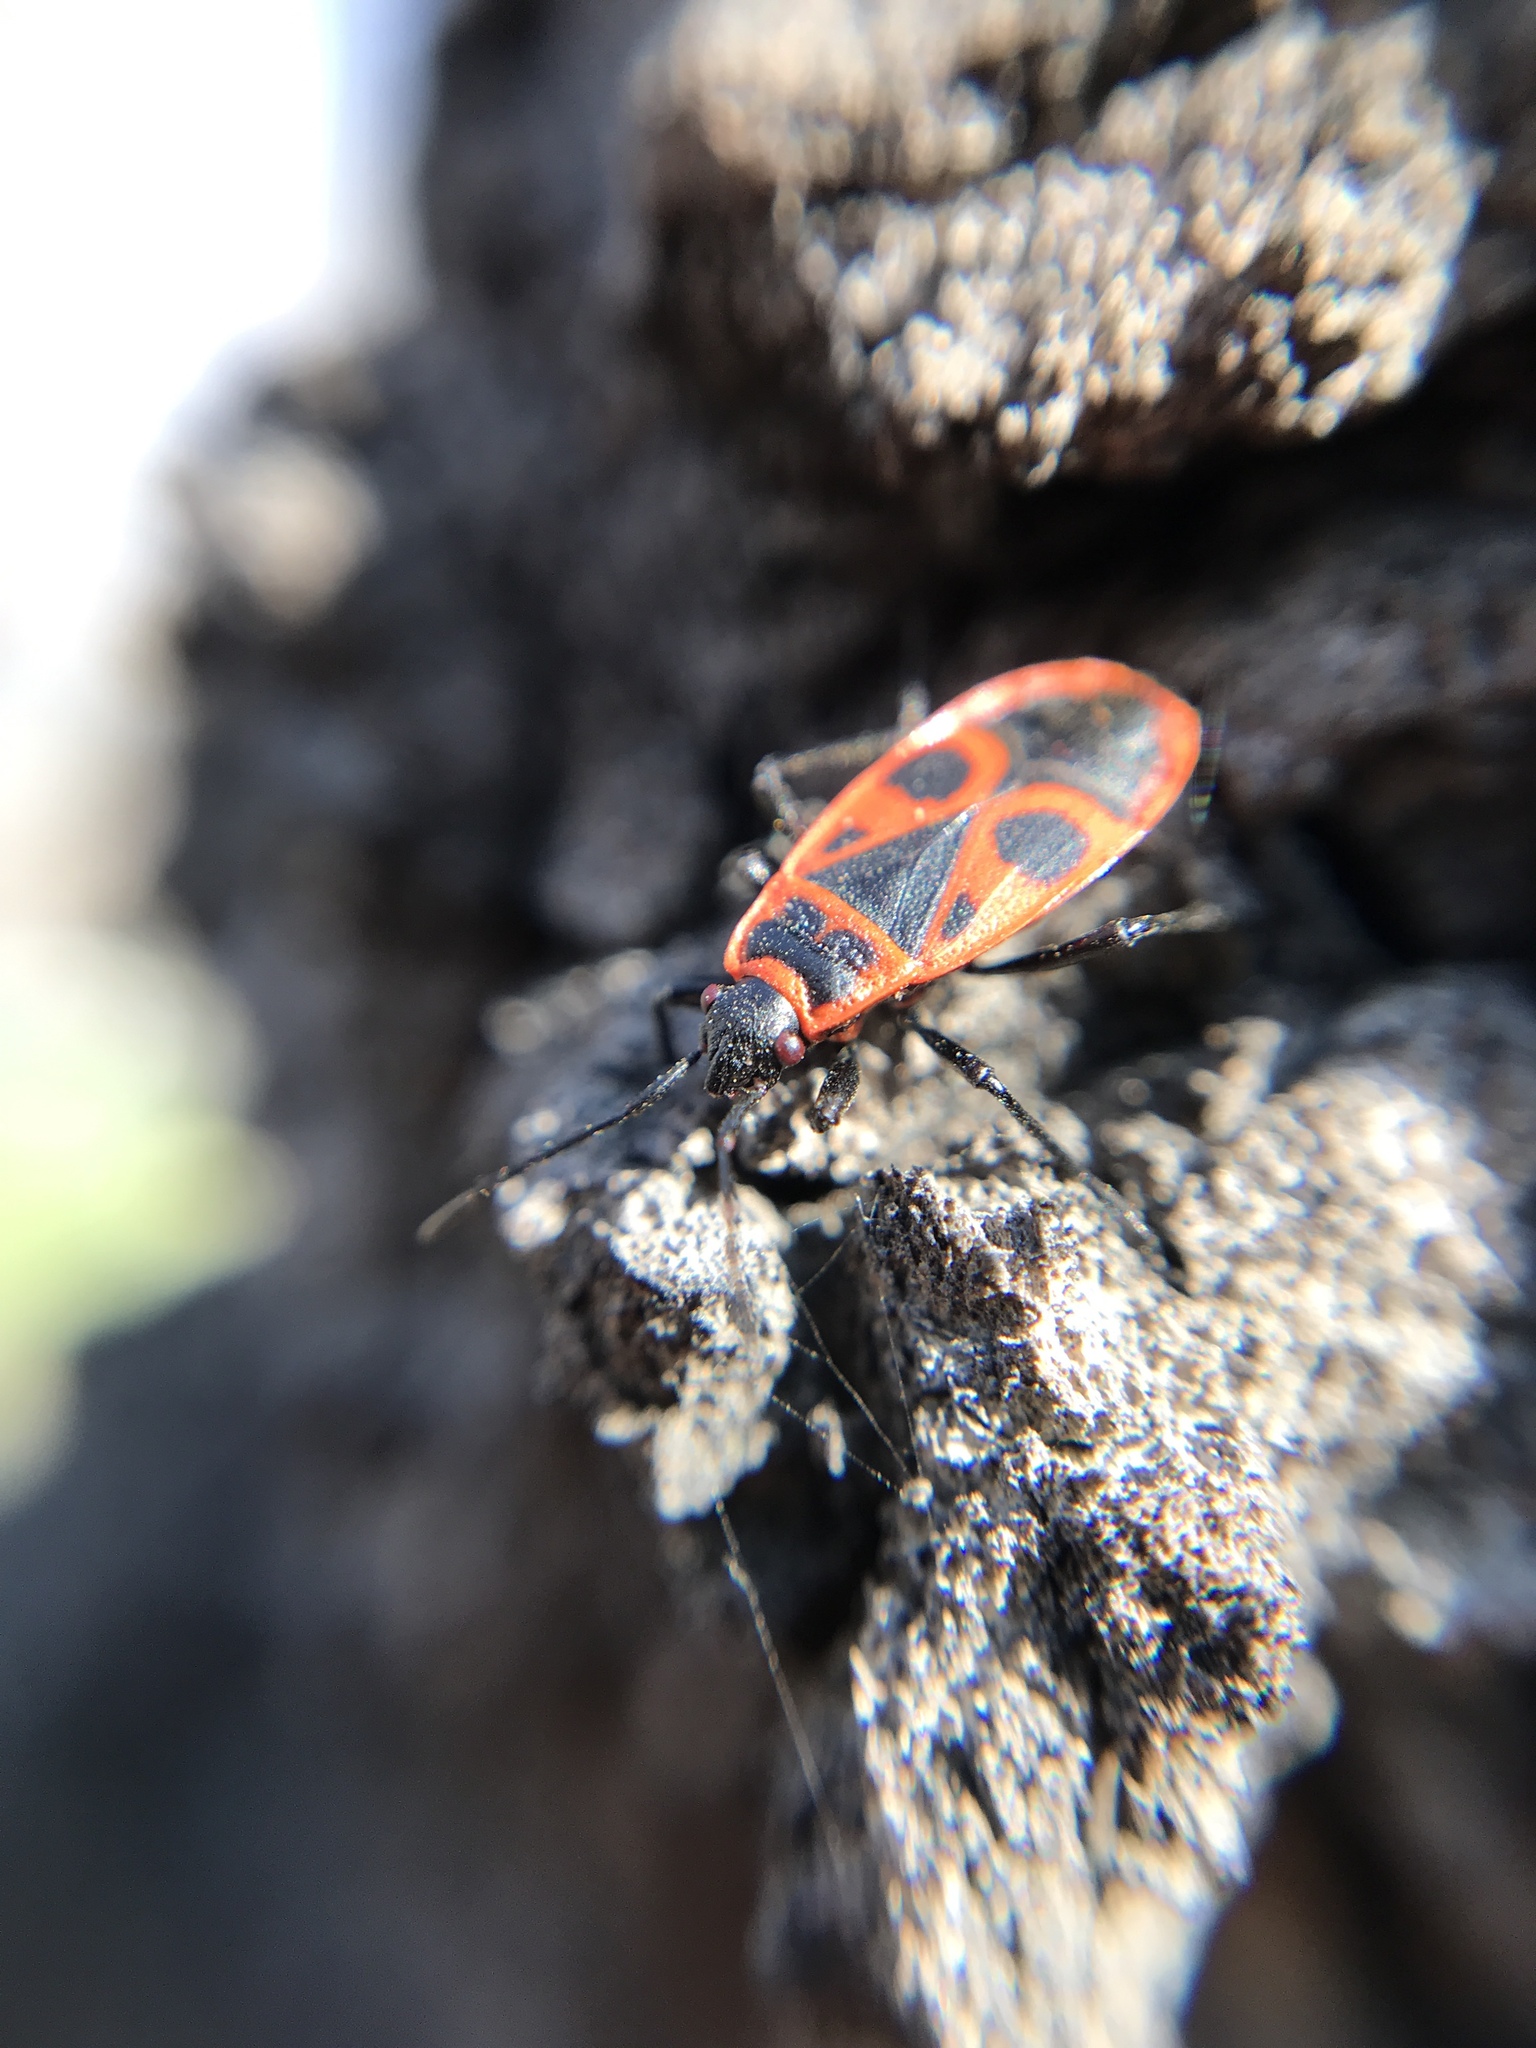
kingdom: Animalia
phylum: Arthropoda
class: Insecta
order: Hemiptera
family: Pyrrhocoridae
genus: Pyrrhocoris
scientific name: Pyrrhocoris apterus
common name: Firebug
